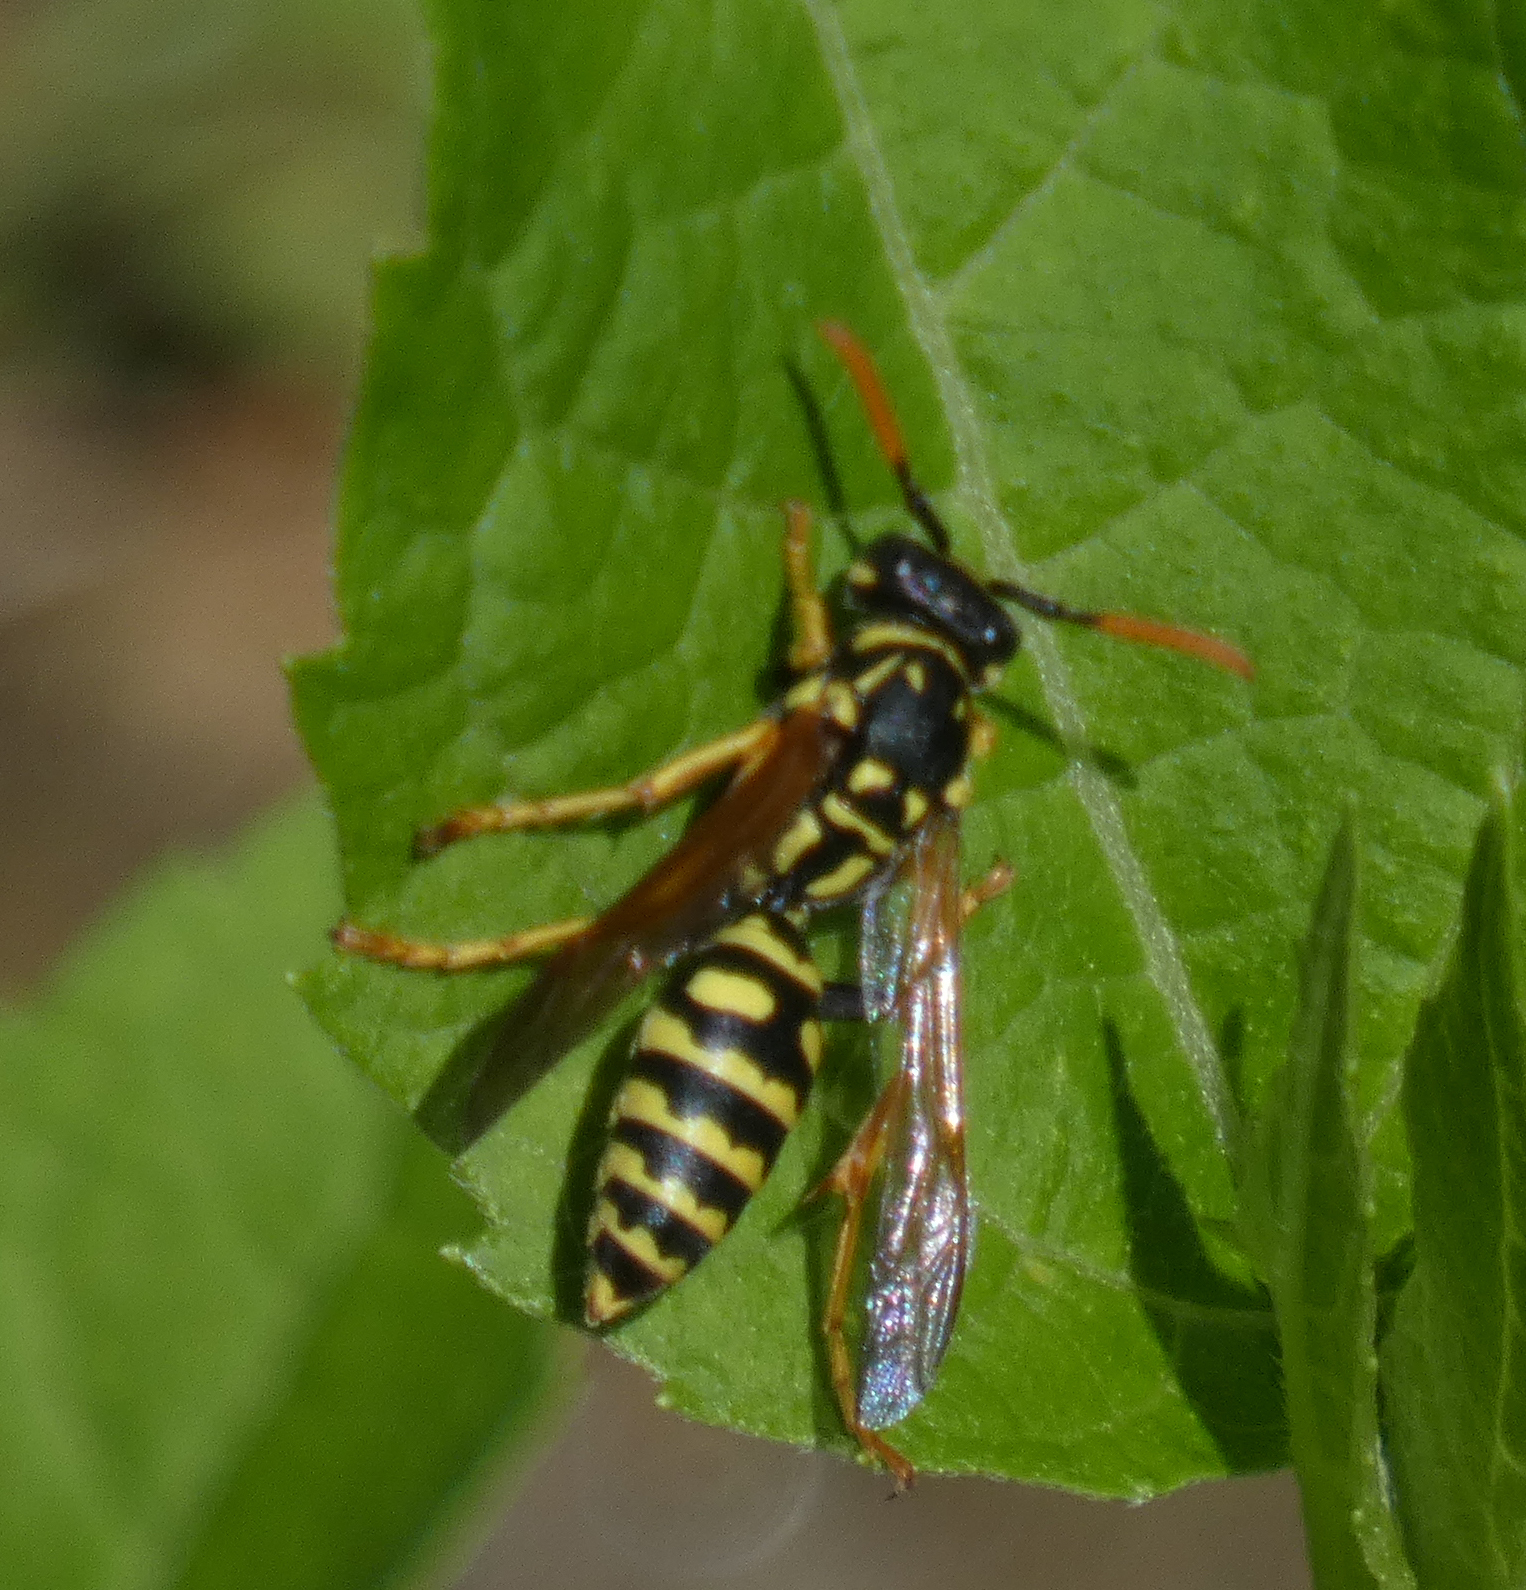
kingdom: Animalia
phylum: Arthropoda
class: Insecta
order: Hymenoptera
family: Eumenidae
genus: Polistes
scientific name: Polistes dominula
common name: Paper wasp
